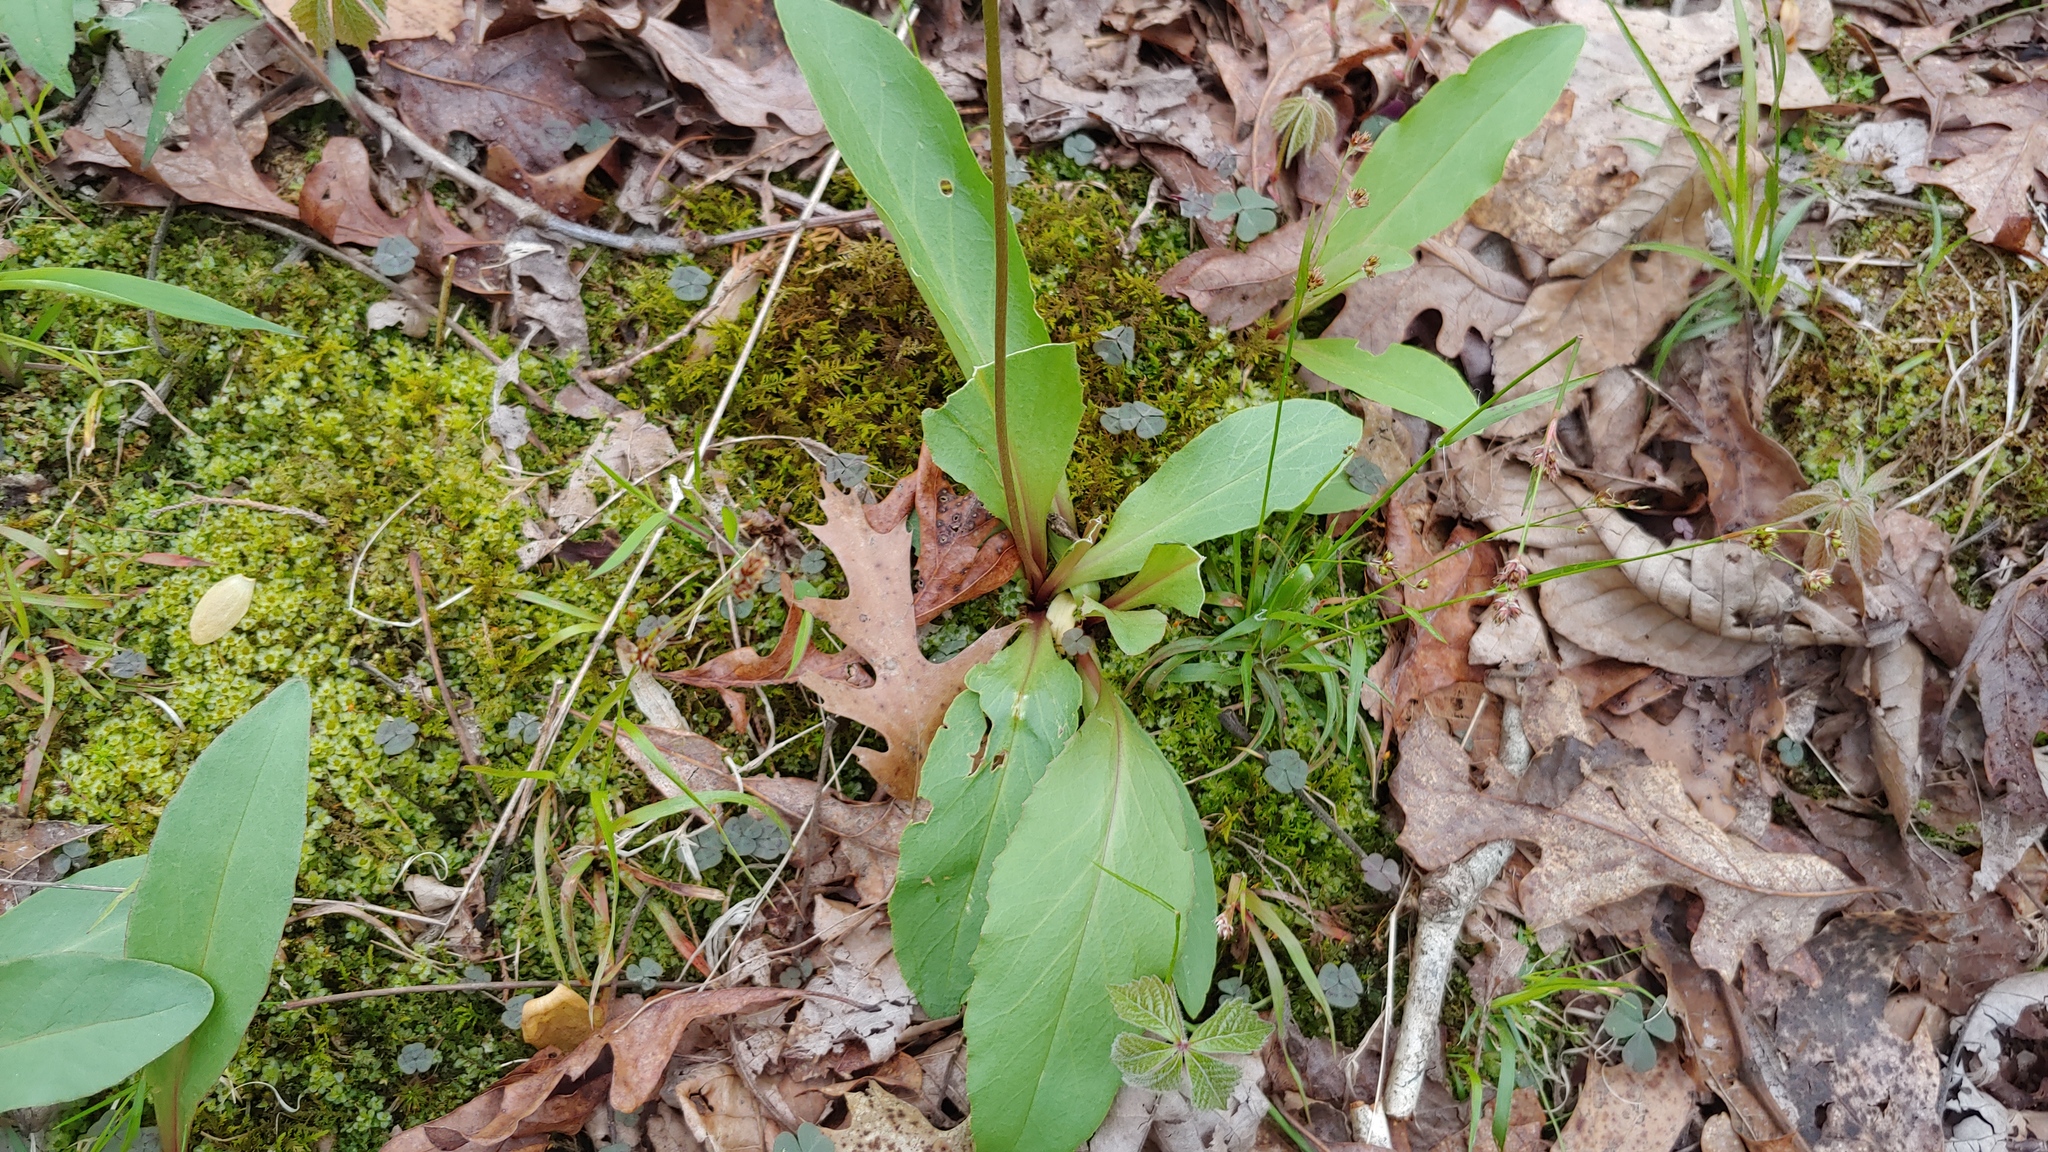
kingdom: Plantae
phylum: Tracheophyta
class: Magnoliopsida
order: Ericales
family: Primulaceae
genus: Dodecatheon
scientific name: Dodecatheon meadia
